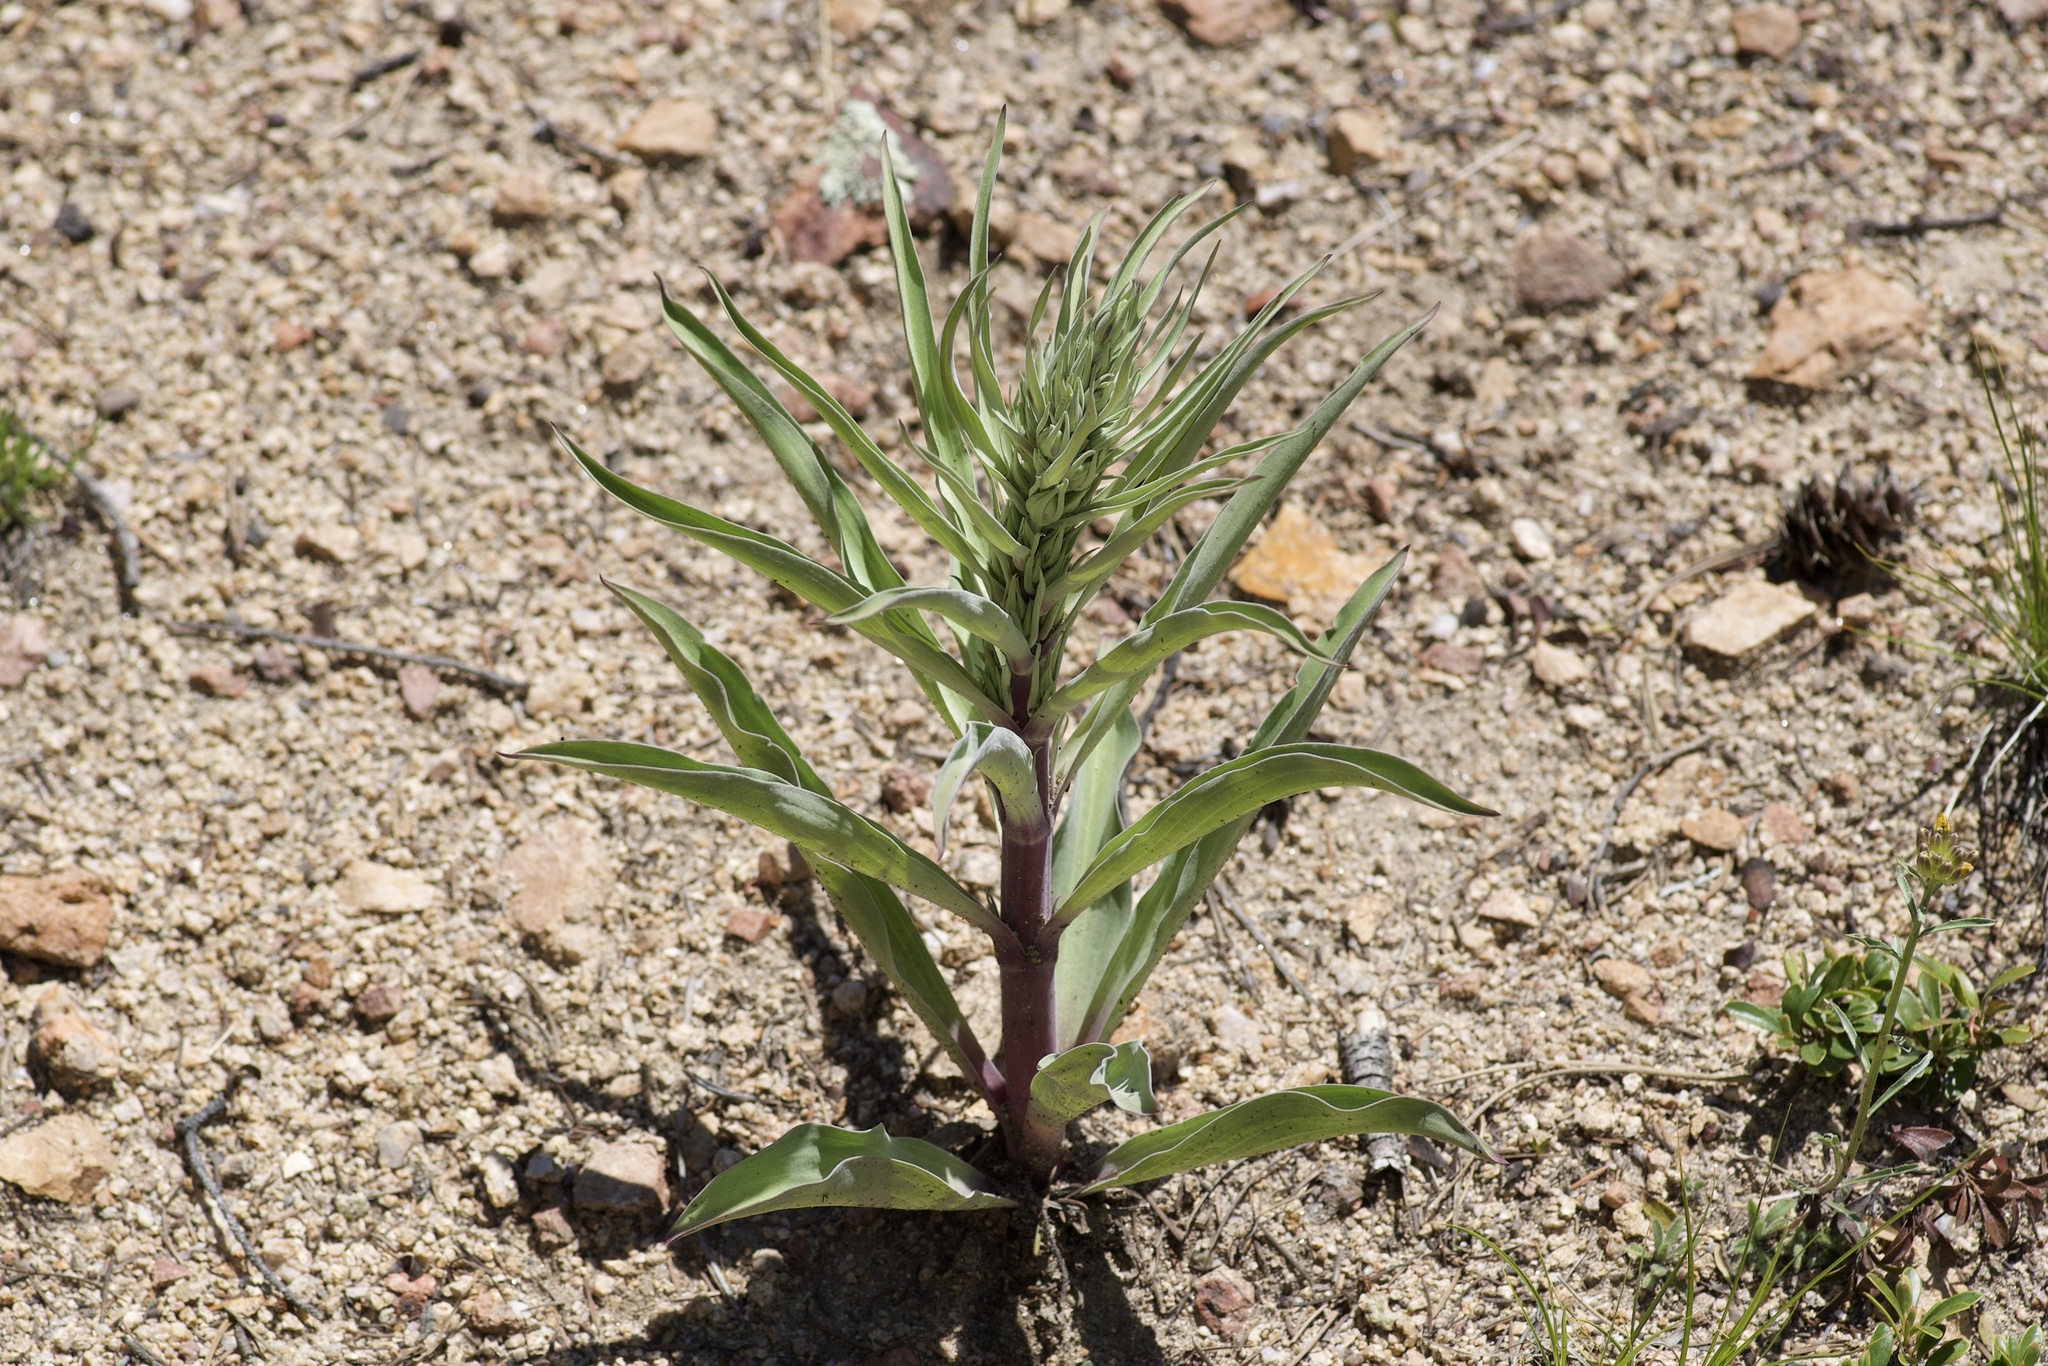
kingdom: Plantae
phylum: Tracheophyta
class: Magnoliopsida
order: Gentianales
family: Gentianaceae
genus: Frasera
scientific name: Frasera speciosa
